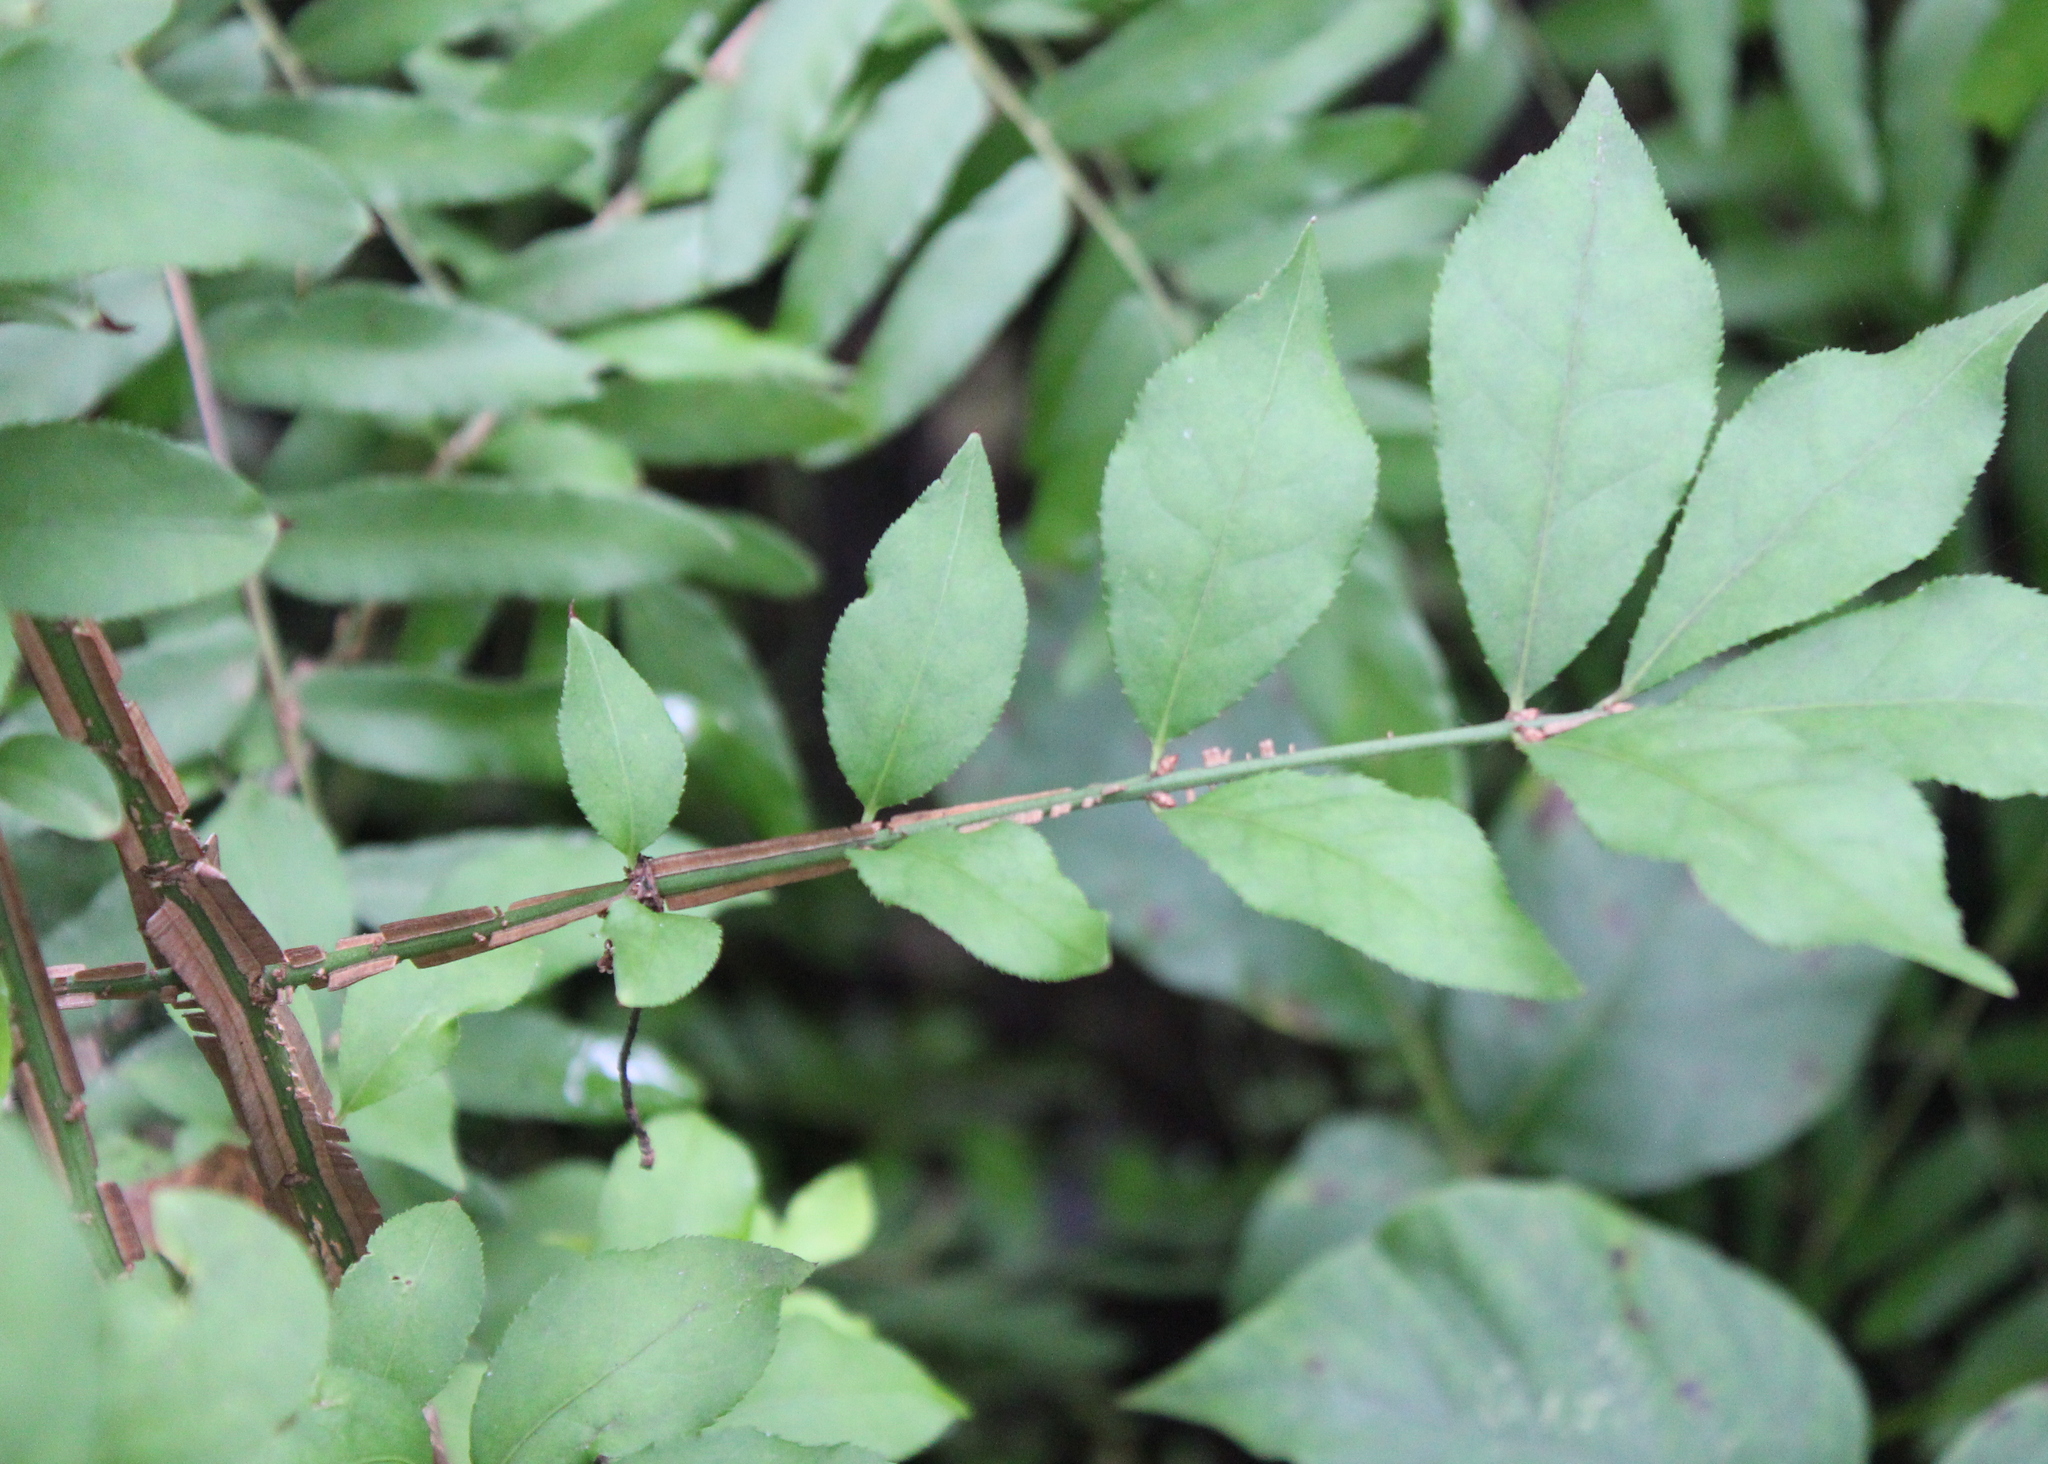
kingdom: Plantae
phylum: Tracheophyta
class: Magnoliopsida
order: Celastrales
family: Celastraceae
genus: Euonymus
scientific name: Euonymus alatus
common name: Winged euonymus
